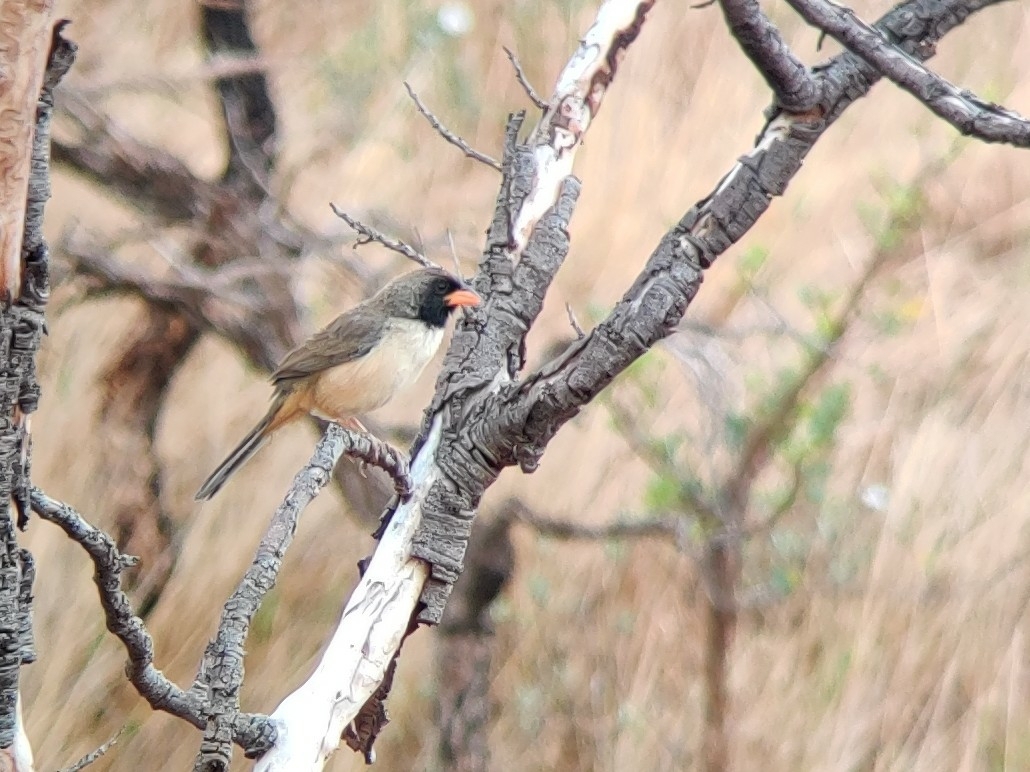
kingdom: Animalia
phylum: Chordata
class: Aves
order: Passeriformes
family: Thraupidae
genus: Saltatricula
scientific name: Saltatricula atricollis
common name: Black-throated saltator
